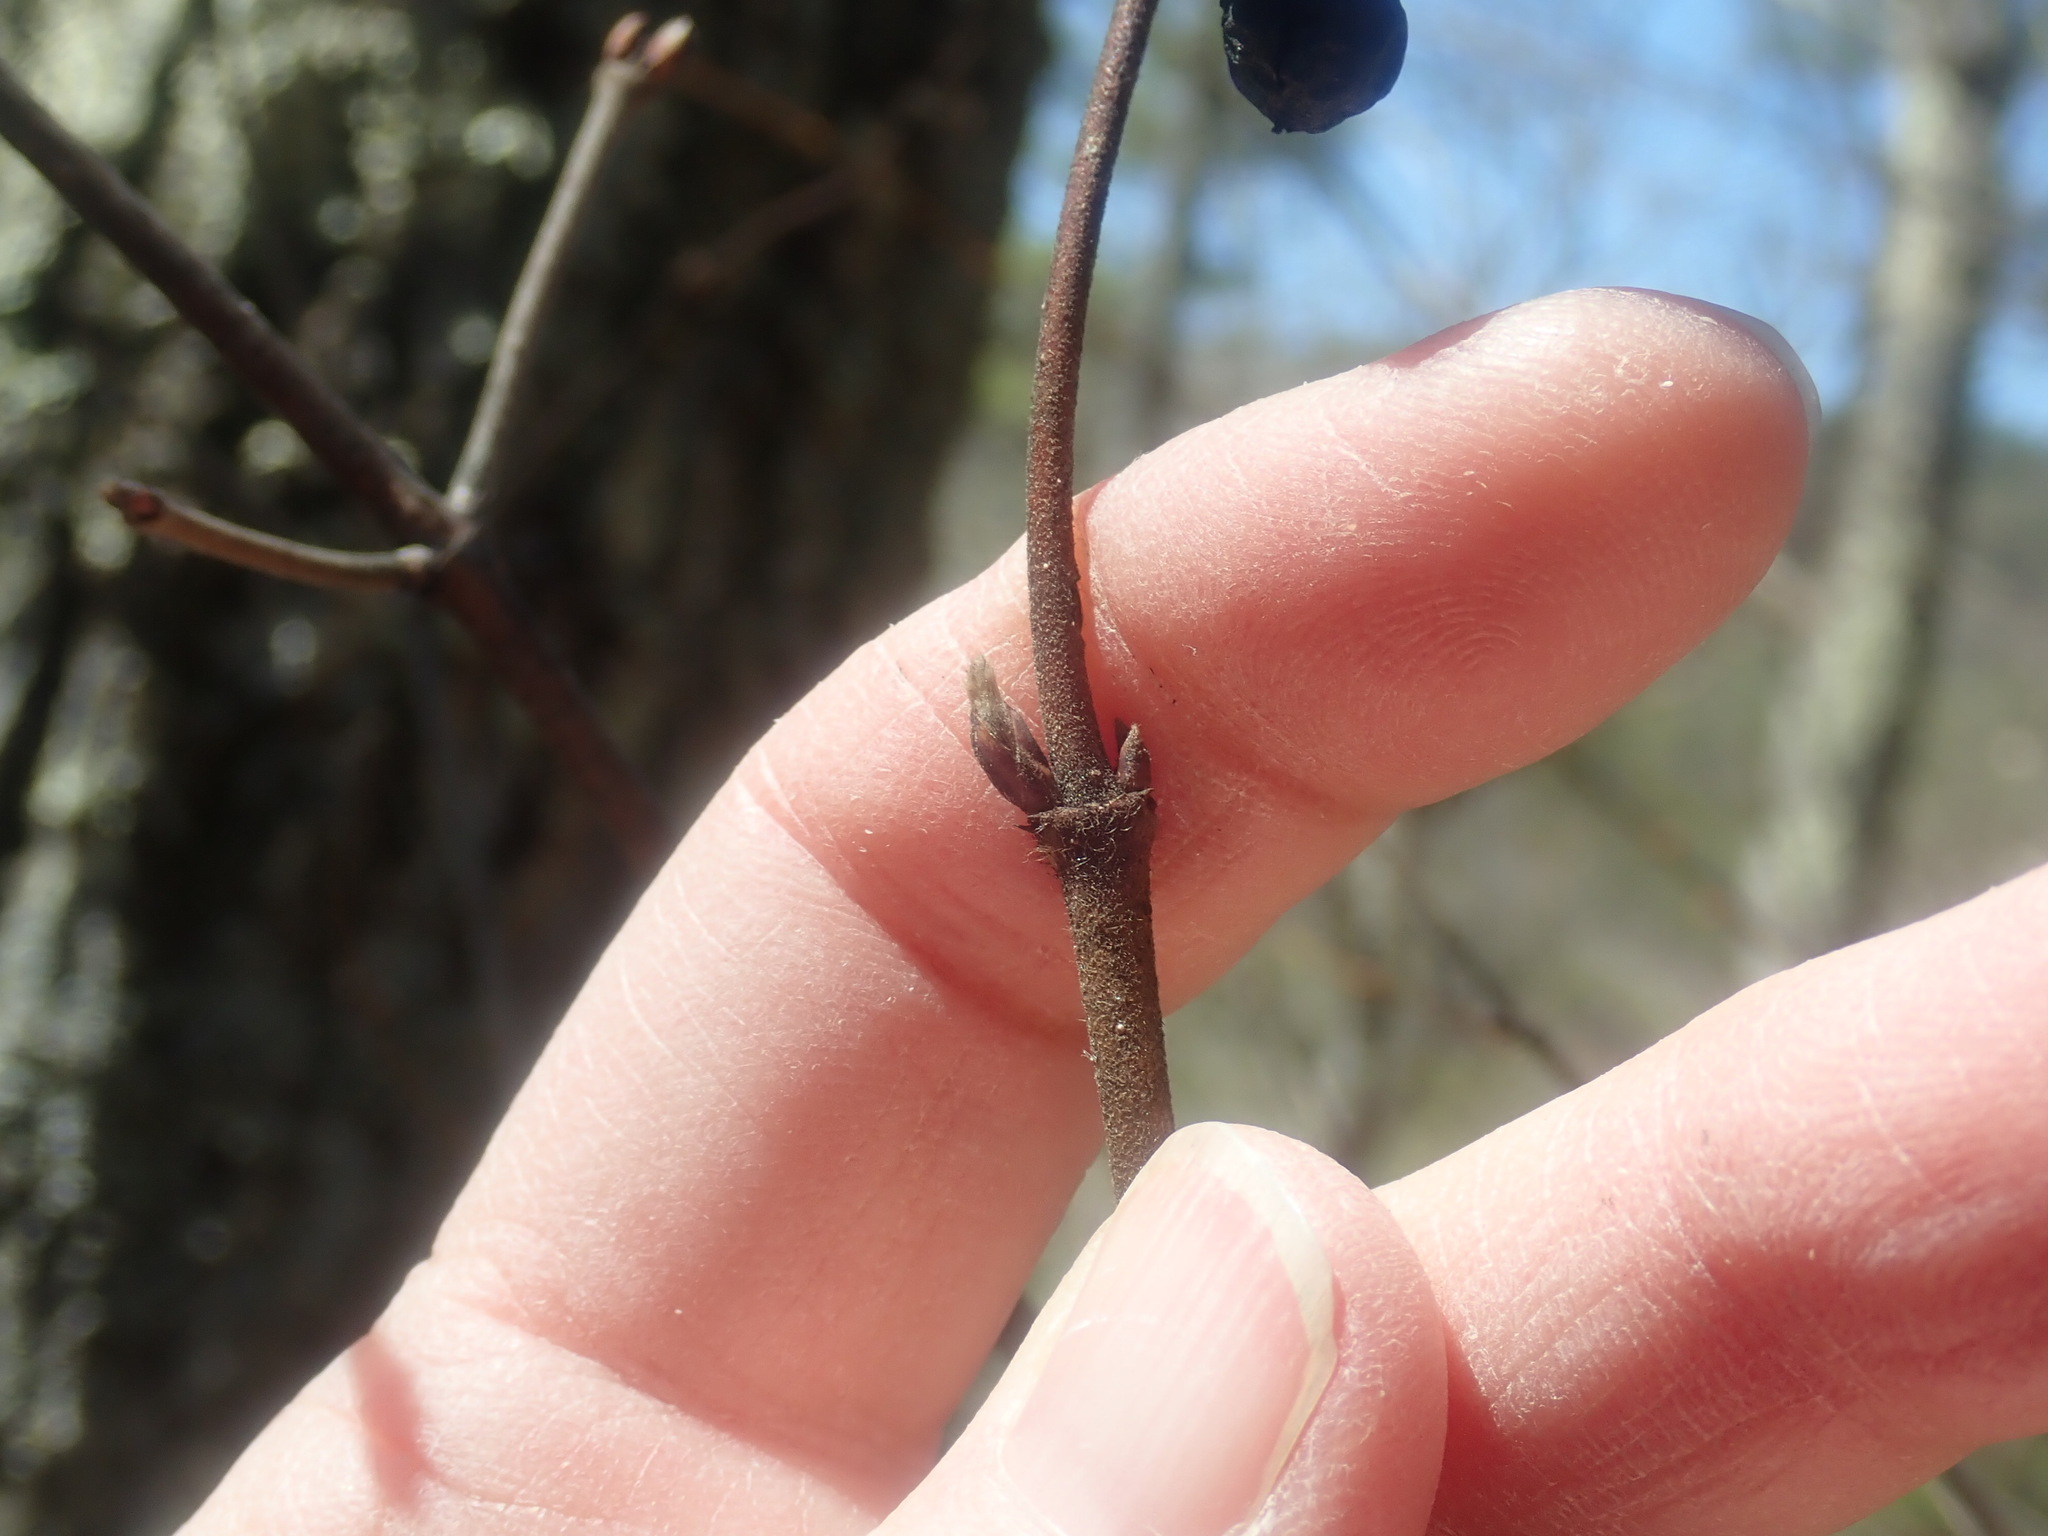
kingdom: Plantae
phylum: Tracheophyta
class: Magnoliopsida
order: Dipsacales
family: Viburnaceae
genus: Viburnum
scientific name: Viburnum acerifolium
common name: Dockmackie
